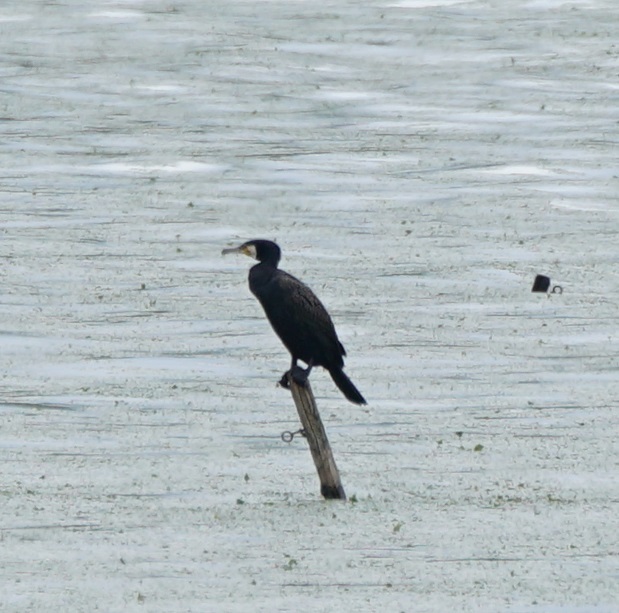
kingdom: Animalia
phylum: Chordata
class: Aves
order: Suliformes
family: Phalacrocoracidae
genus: Phalacrocorax
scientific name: Phalacrocorax carbo
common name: Great cormorant
